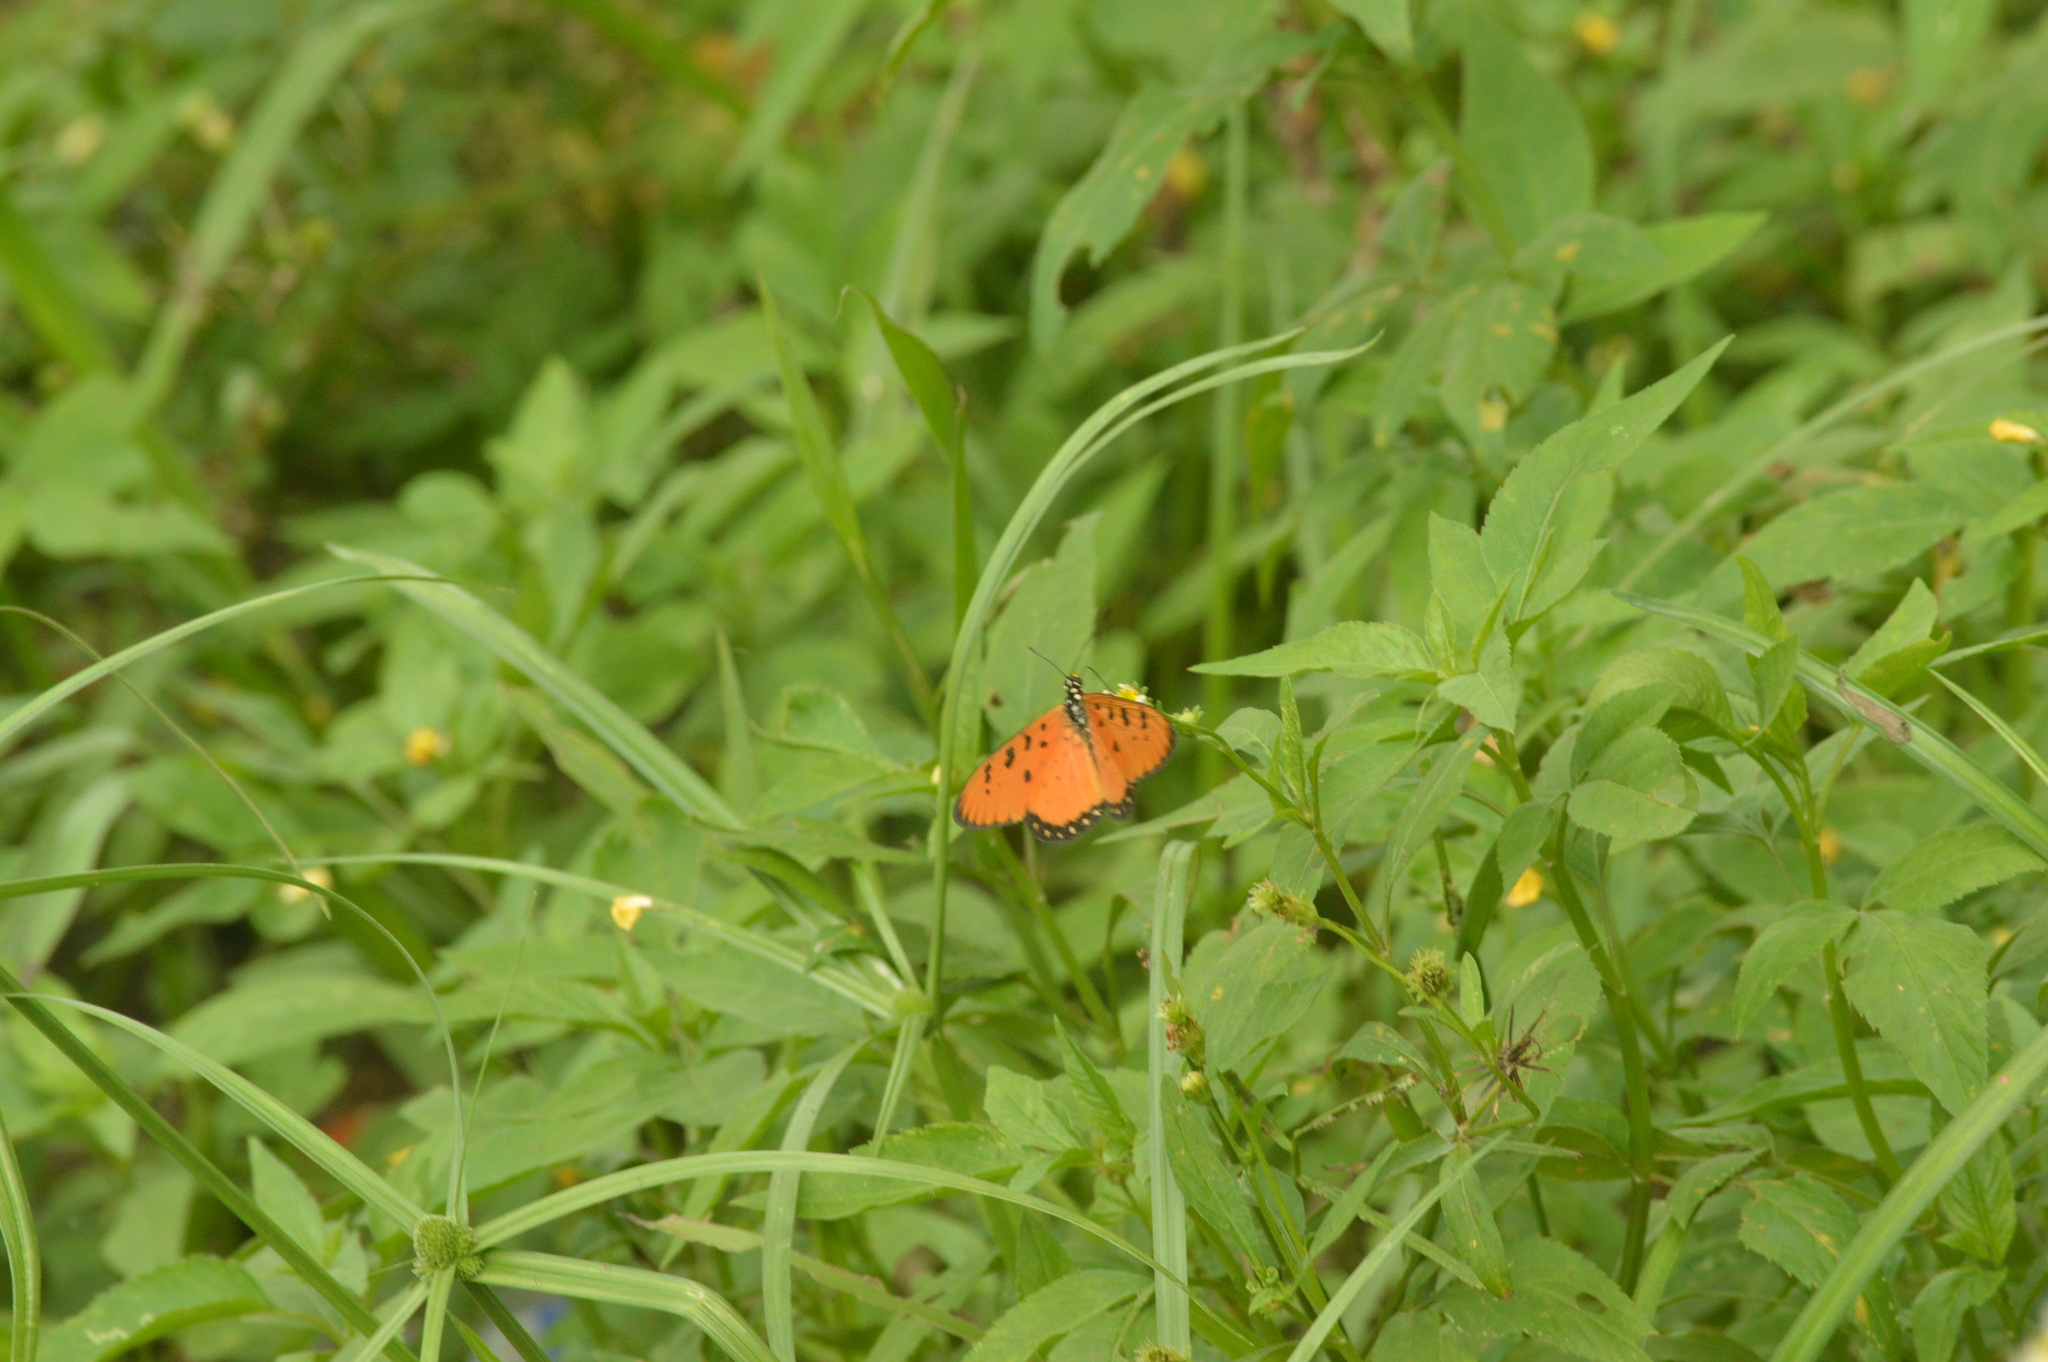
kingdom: Animalia
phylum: Arthropoda
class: Insecta
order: Lepidoptera
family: Nymphalidae
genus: Acraea
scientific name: Acraea terpsicore
